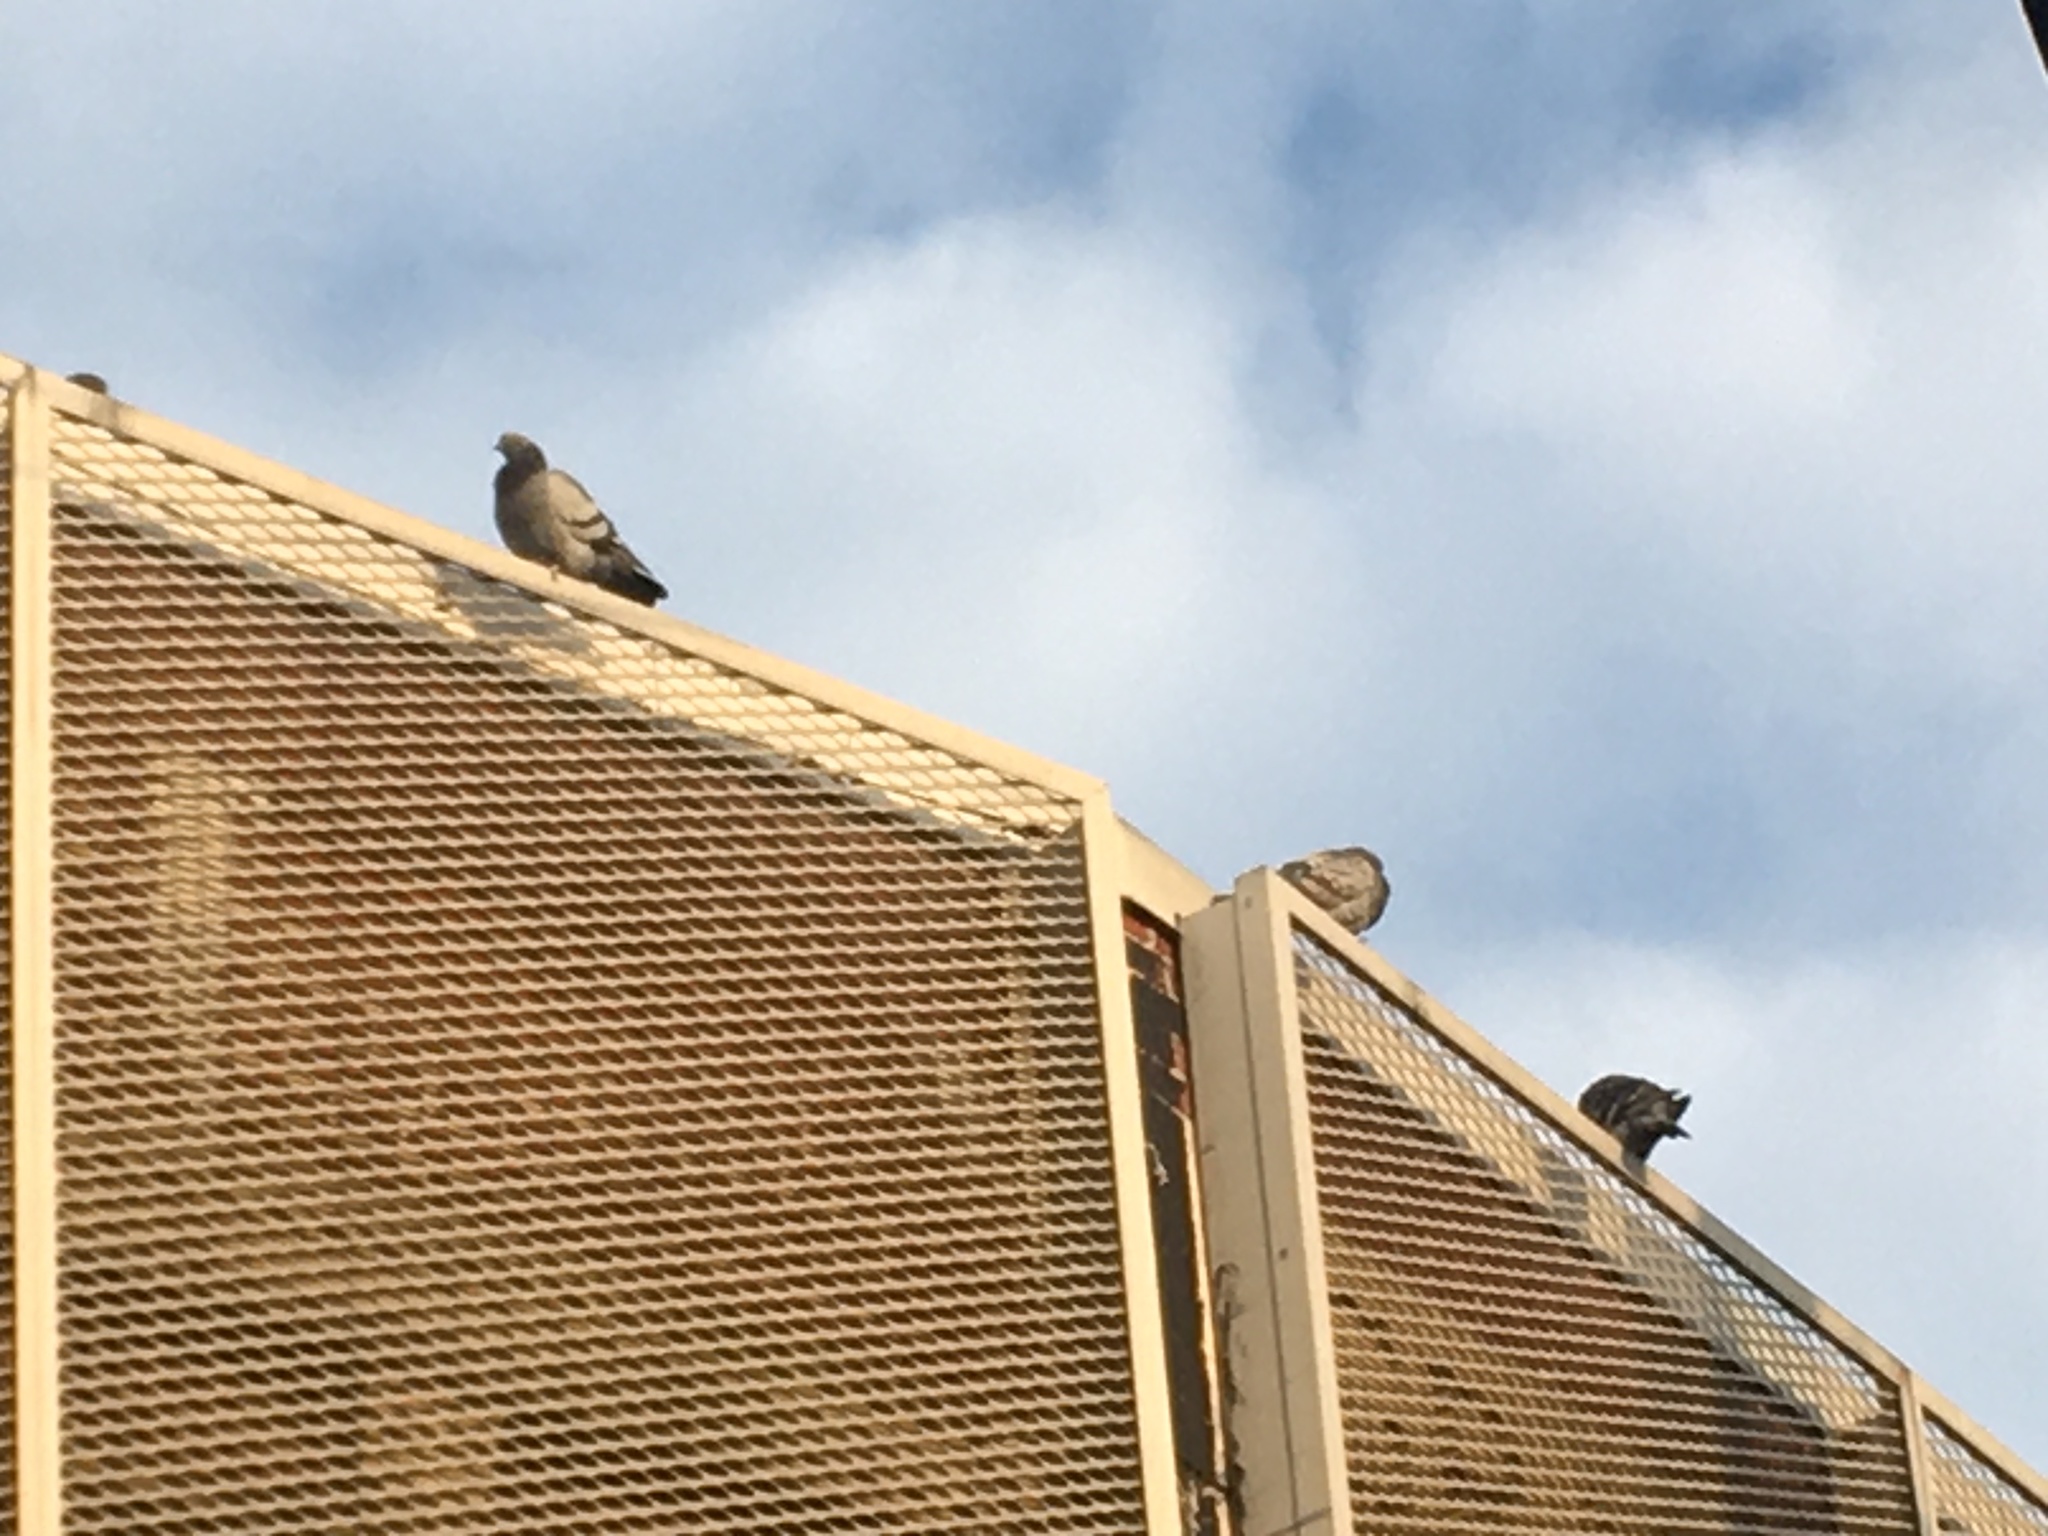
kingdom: Animalia
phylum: Chordata
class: Aves
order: Columbiformes
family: Columbidae
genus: Columba
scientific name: Columba livia
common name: Rock pigeon
